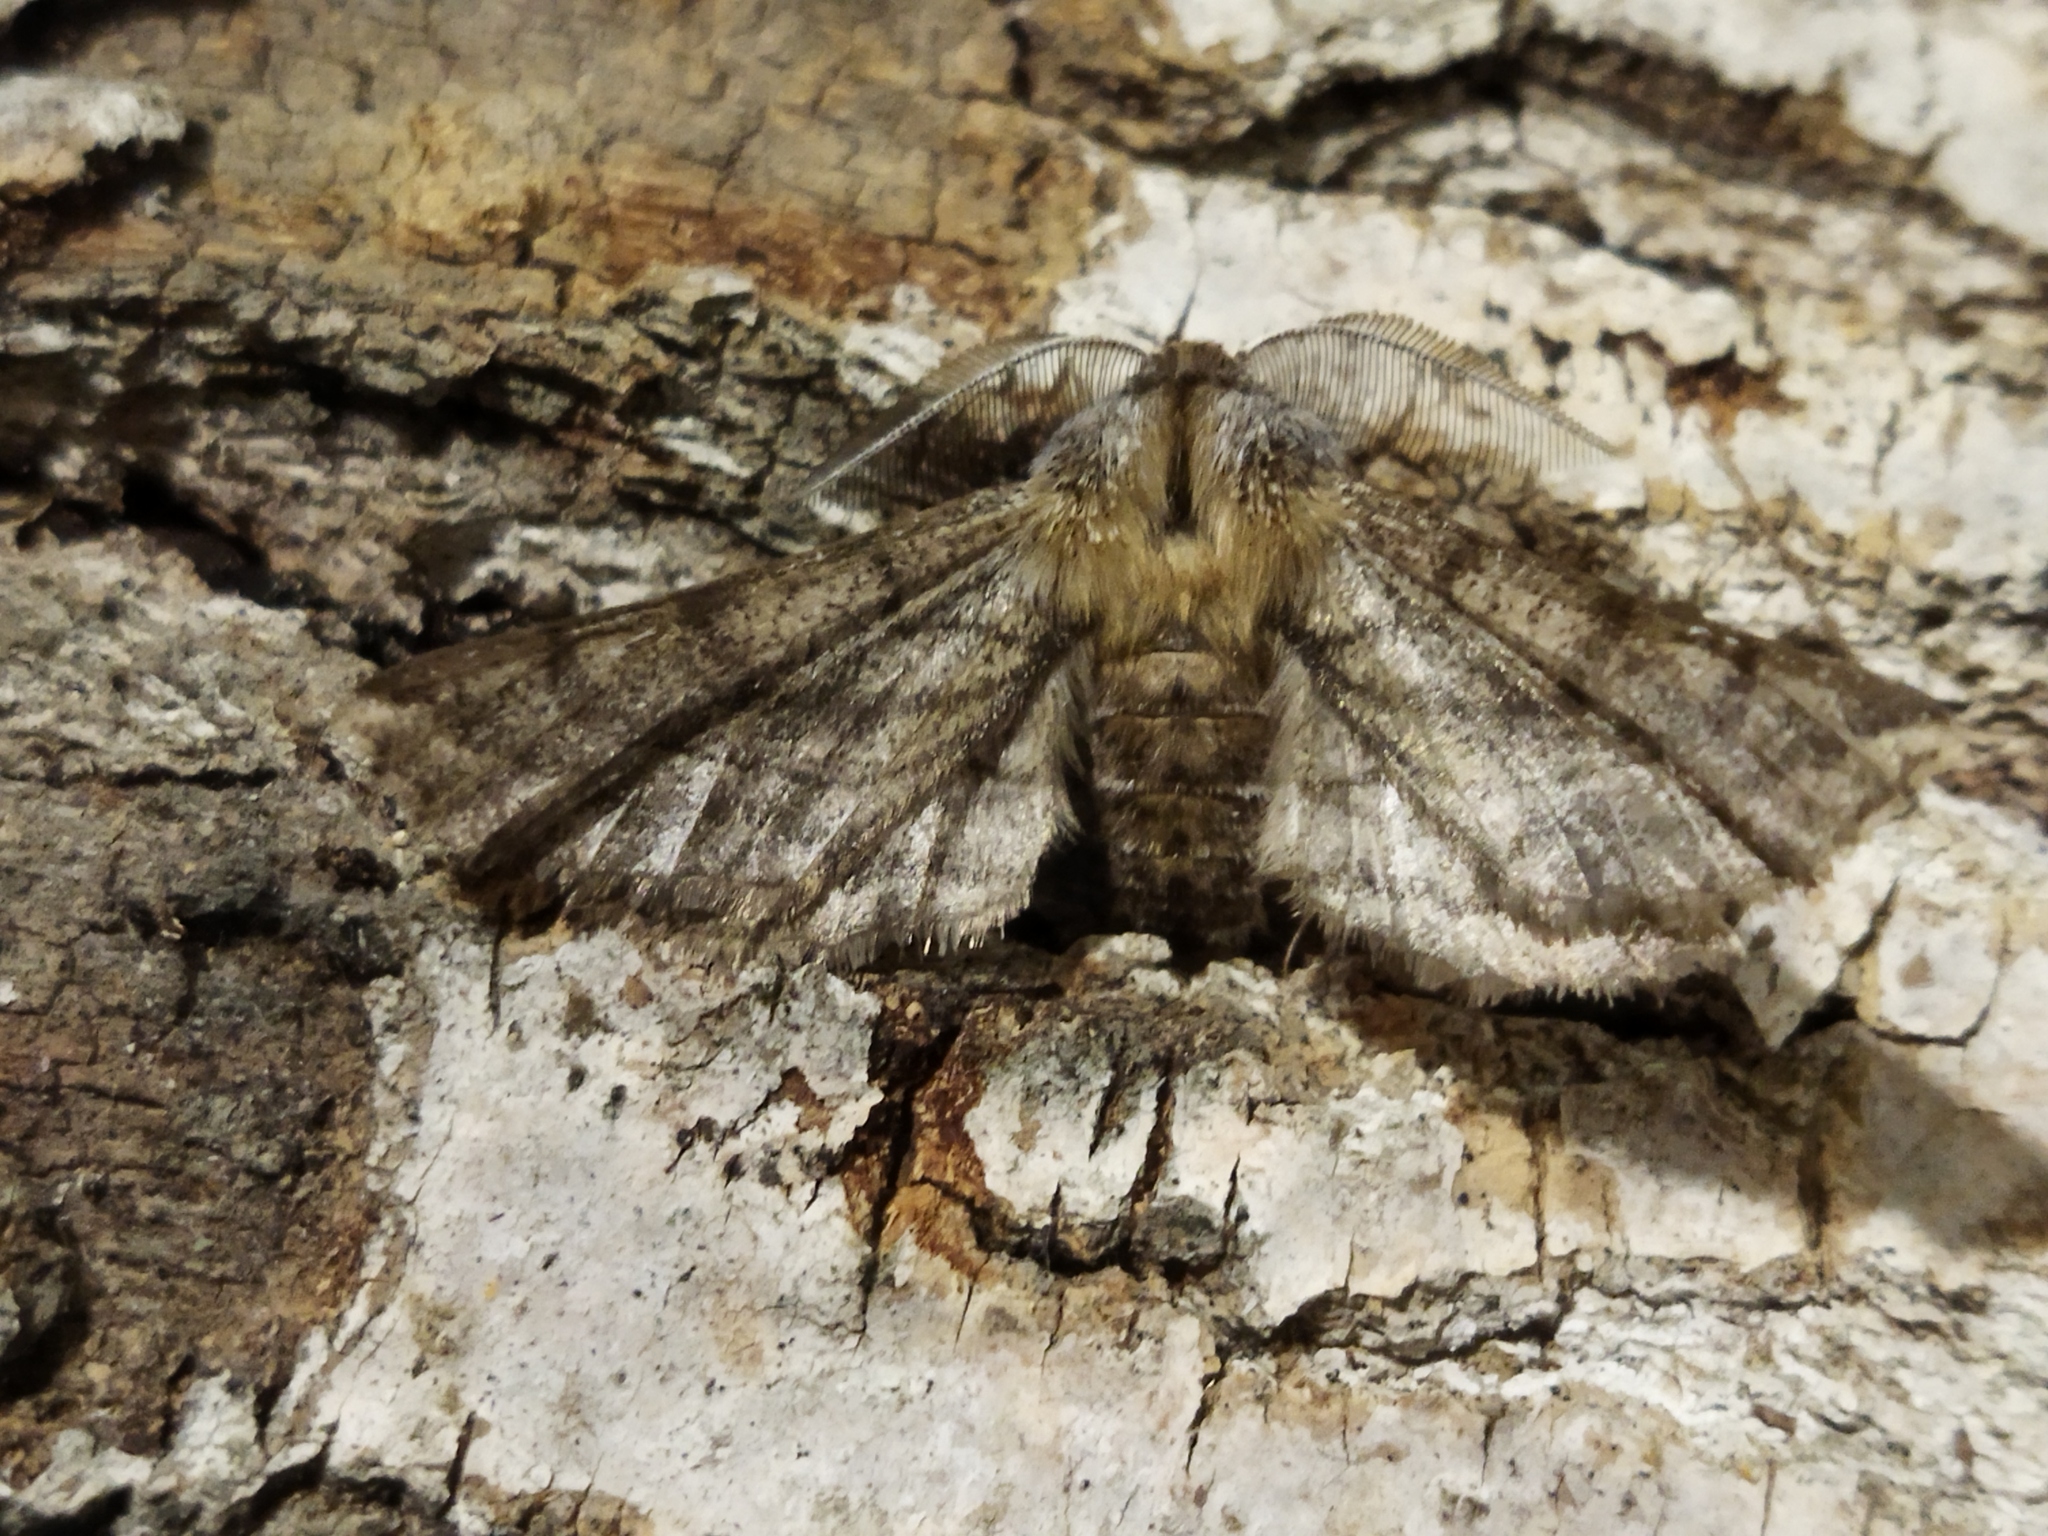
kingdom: Animalia
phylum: Arthropoda
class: Insecta
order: Lepidoptera
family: Geometridae
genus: Apochima
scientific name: Apochima flabellaria
